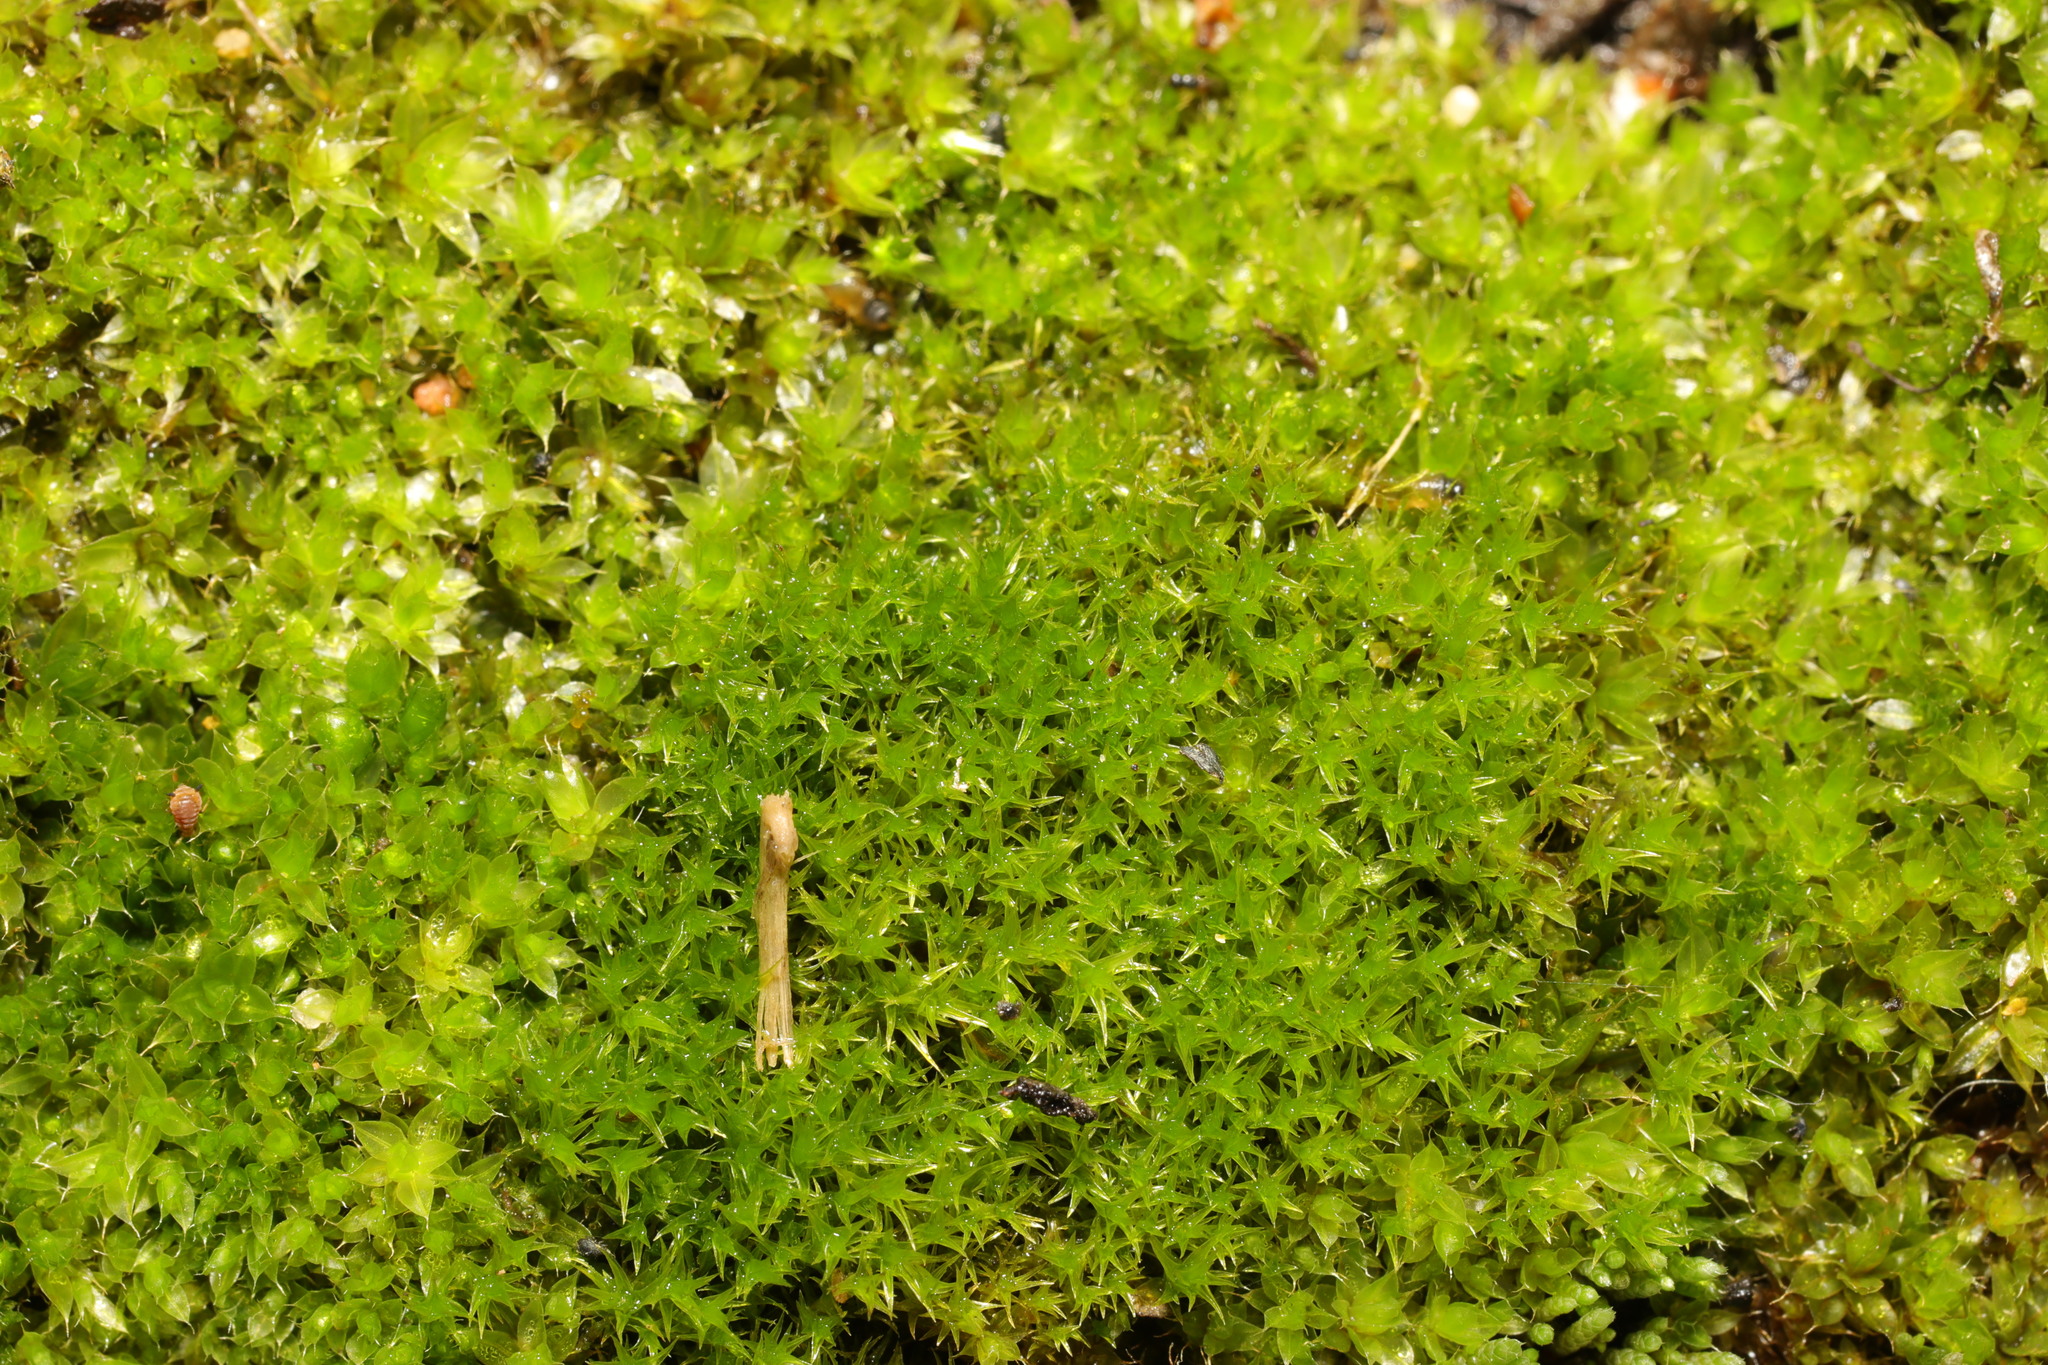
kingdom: Plantae
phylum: Bryophyta
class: Bryopsida
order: Bryales
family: Bryaceae
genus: Rosulabryum
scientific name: Rosulabryum capillare
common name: Capillary thread-moss
